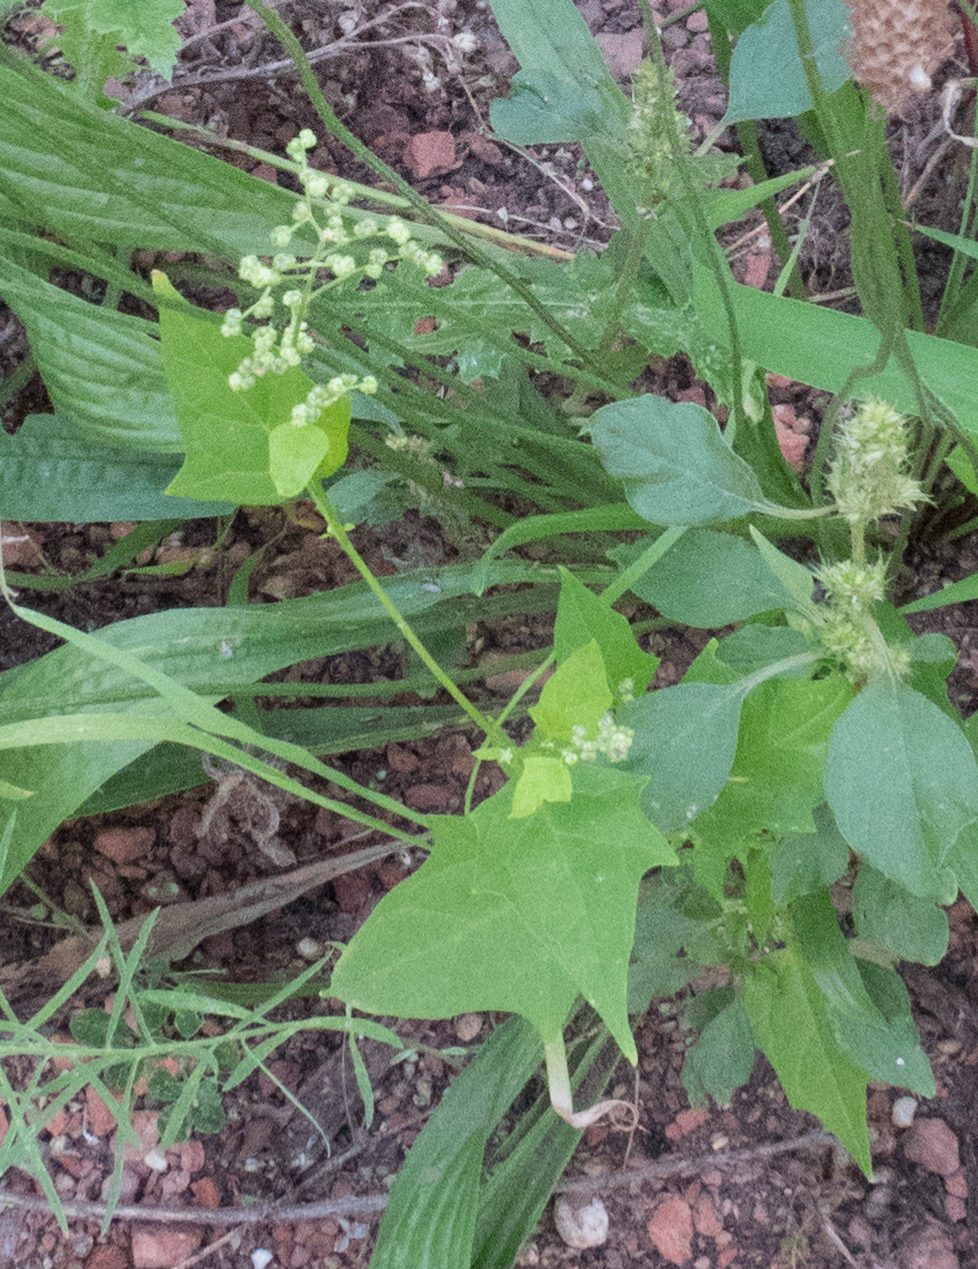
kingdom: Plantae
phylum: Tracheophyta
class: Magnoliopsida
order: Caryophyllales
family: Amaranthaceae
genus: Chenopodiastrum
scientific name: Chenopodiastrum hybridum
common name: Mapleleaf goosefoot
